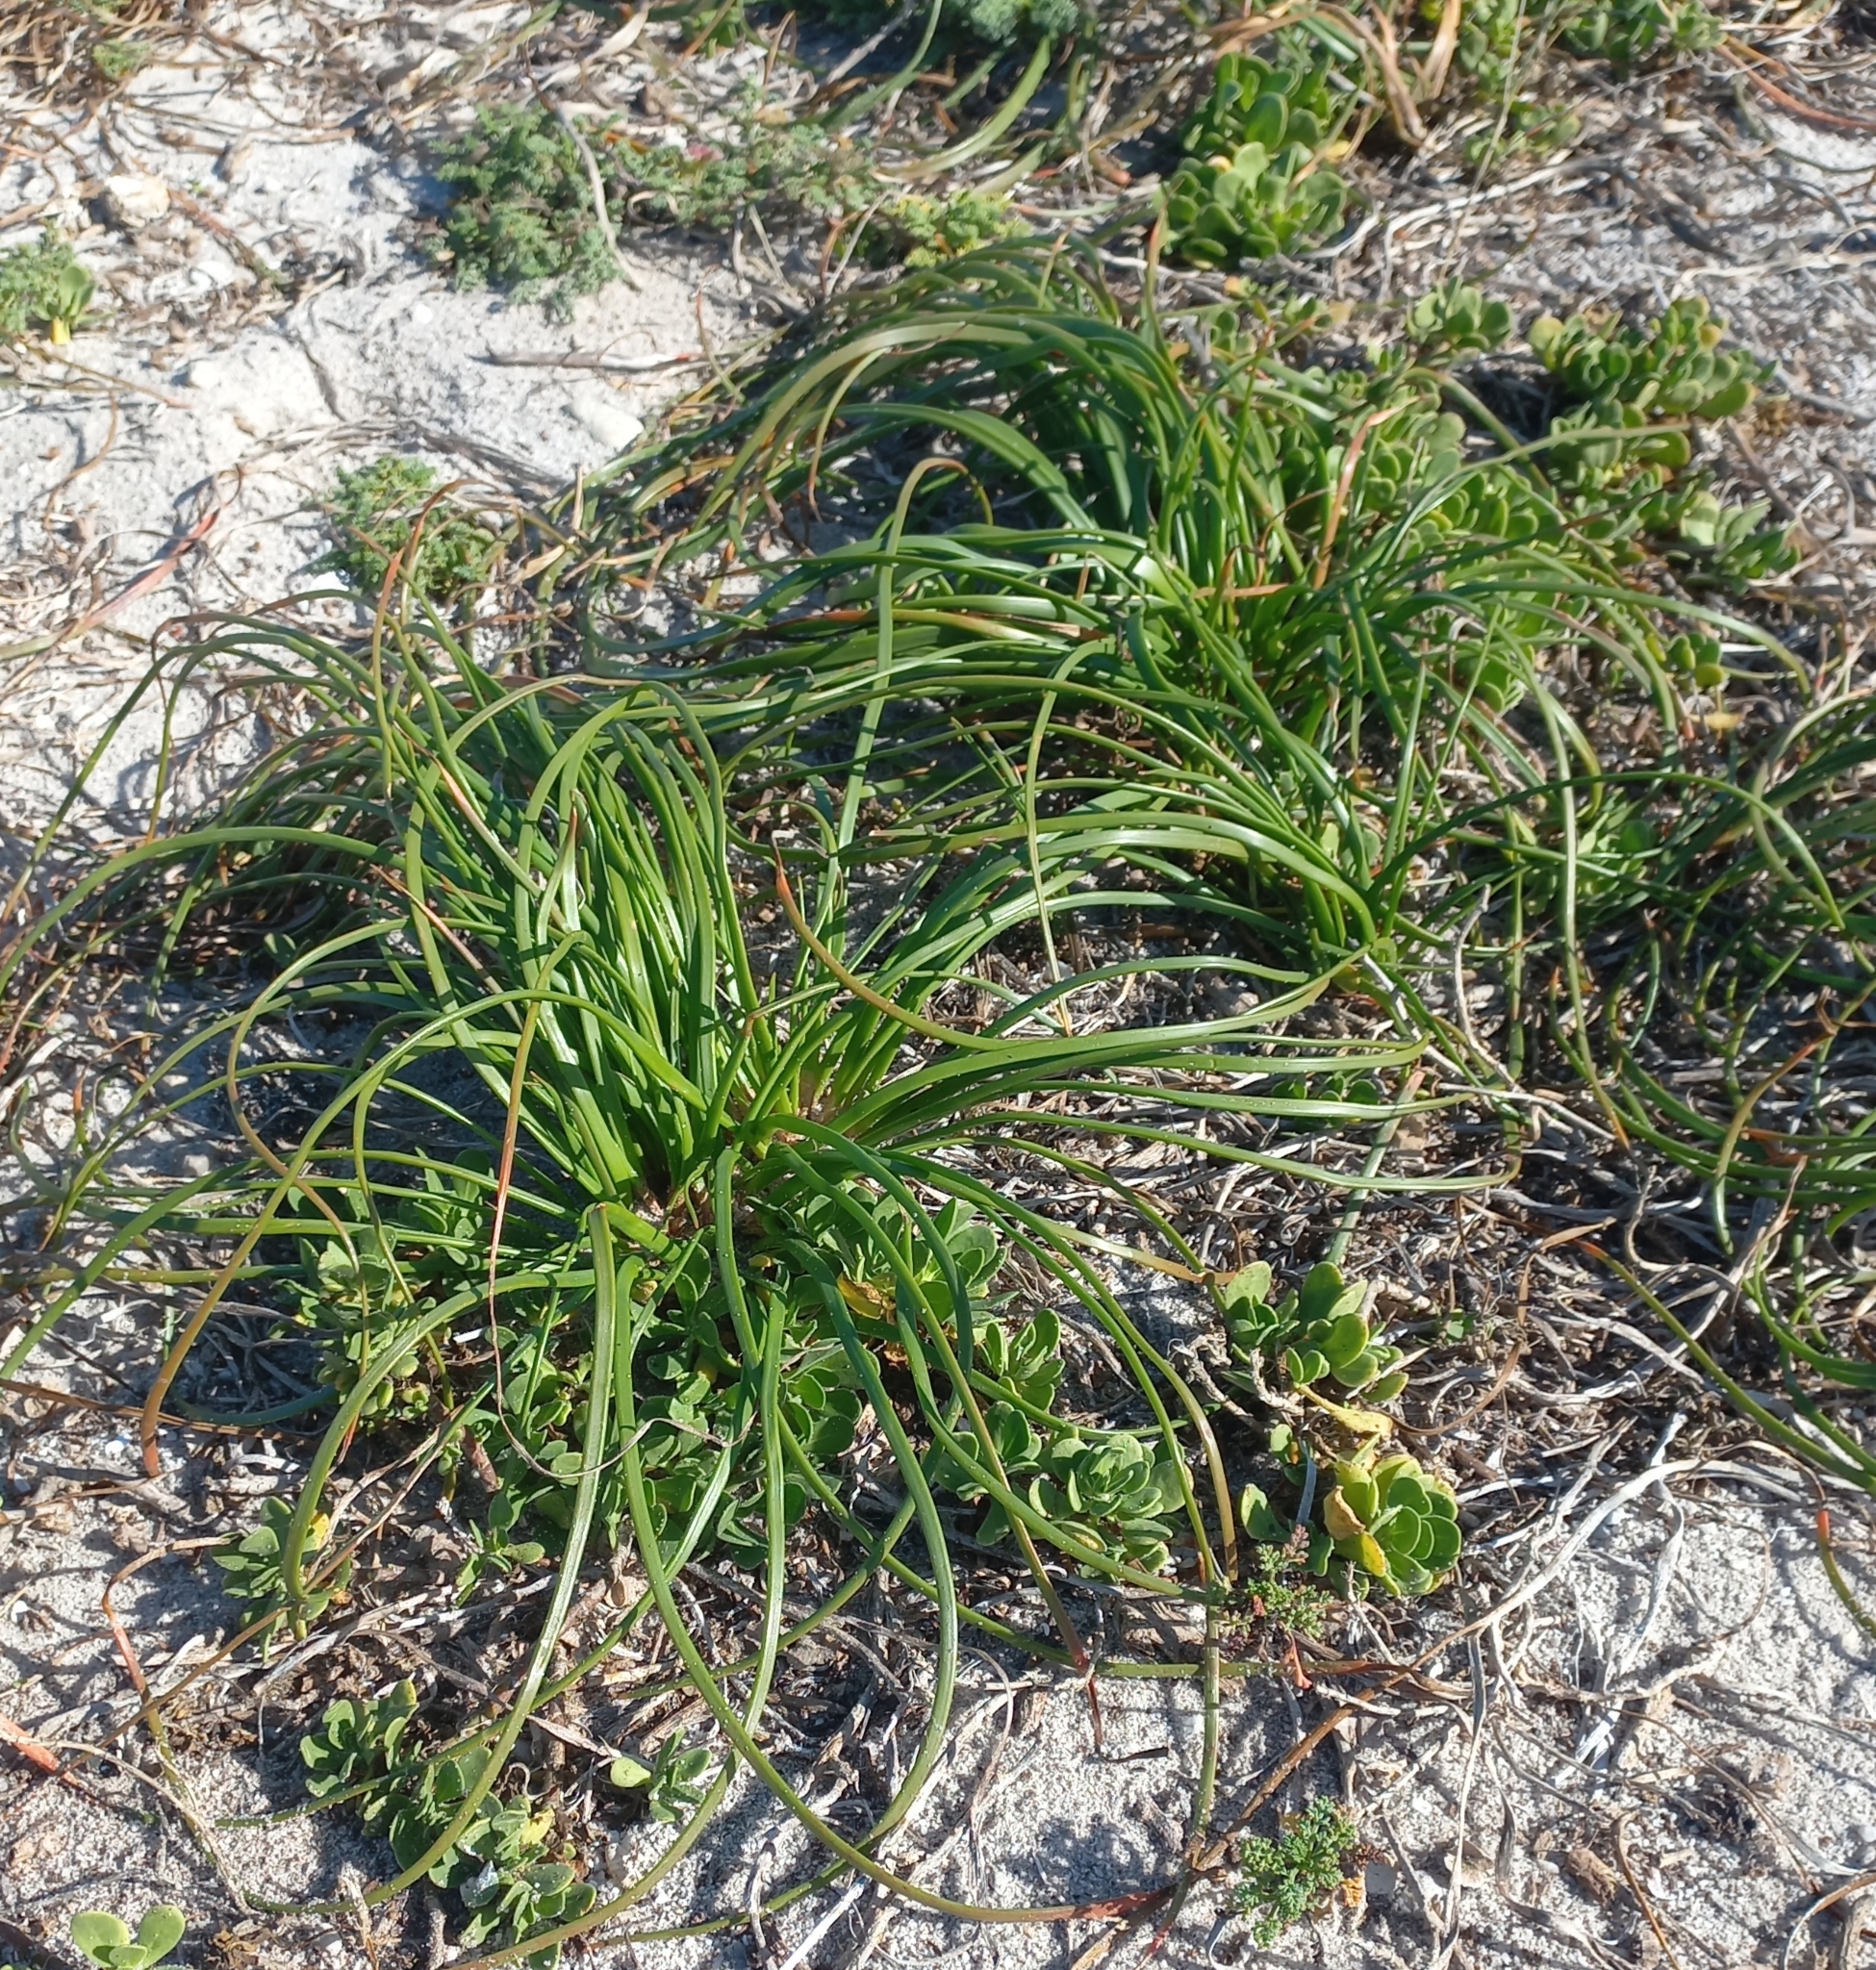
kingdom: Plantae
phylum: Tracheophyta
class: Liliopsida
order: Asparagales
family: Asphodelaceae
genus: Trachyandra
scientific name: Trachyandra divaricata
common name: Dune onionweed
